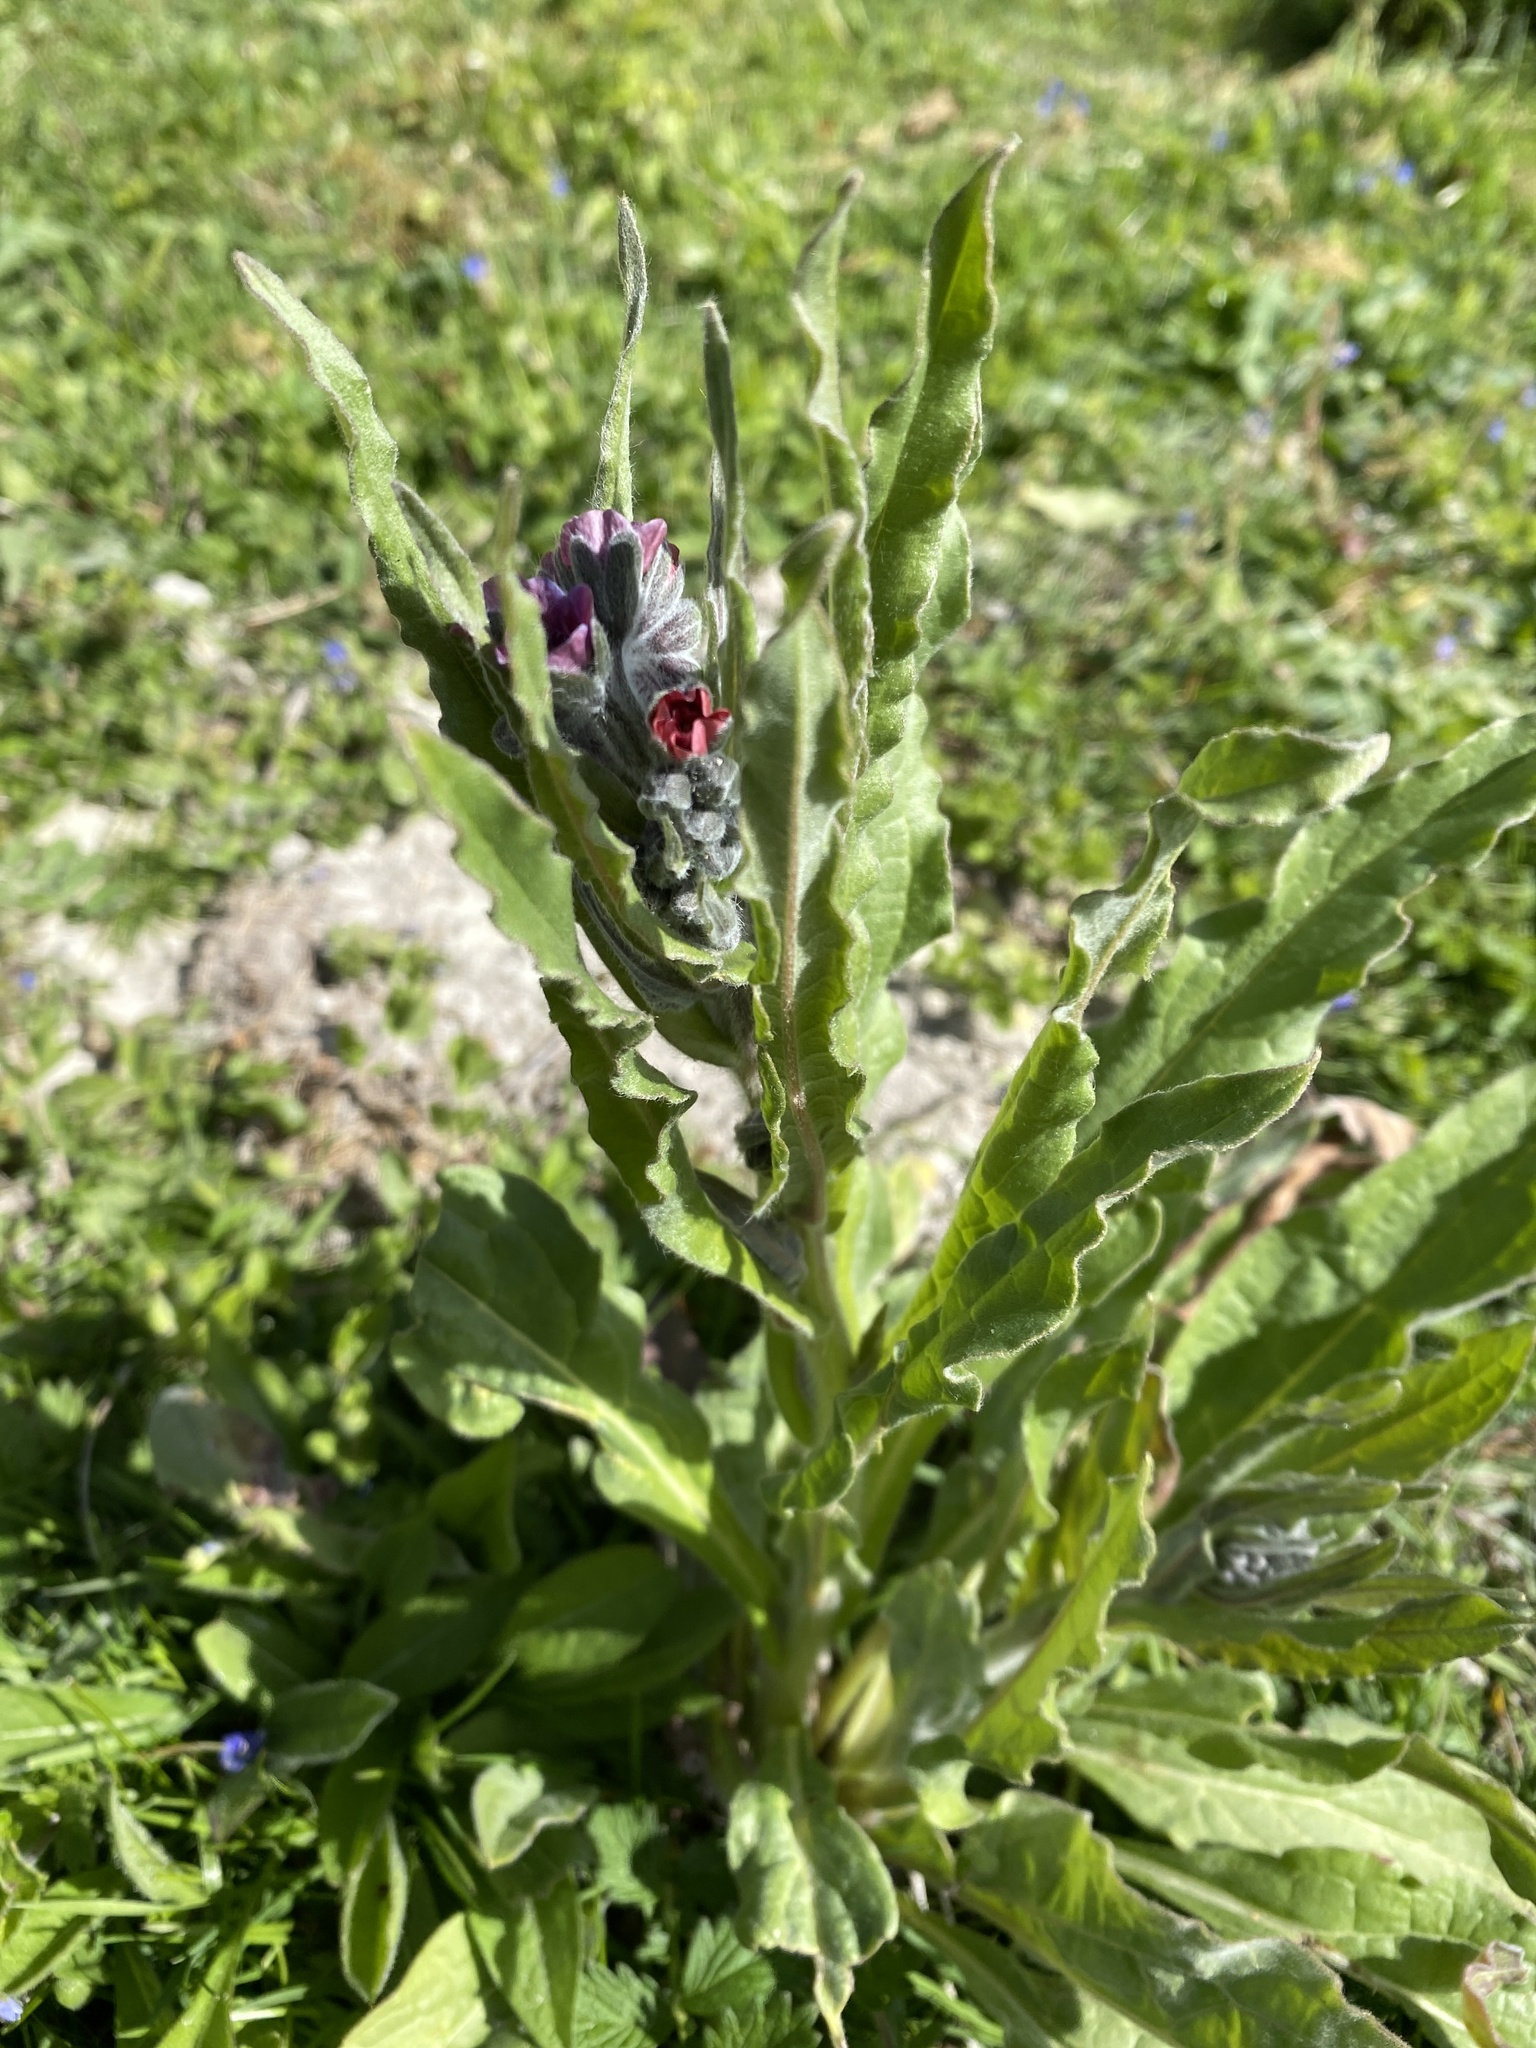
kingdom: Plantae
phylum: Tracheophyta
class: Magnoliopsida
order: Boraginales
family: Boraginaceae
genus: Cynoglossum
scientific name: Cynoglossum officinale
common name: Hound's-tongue
